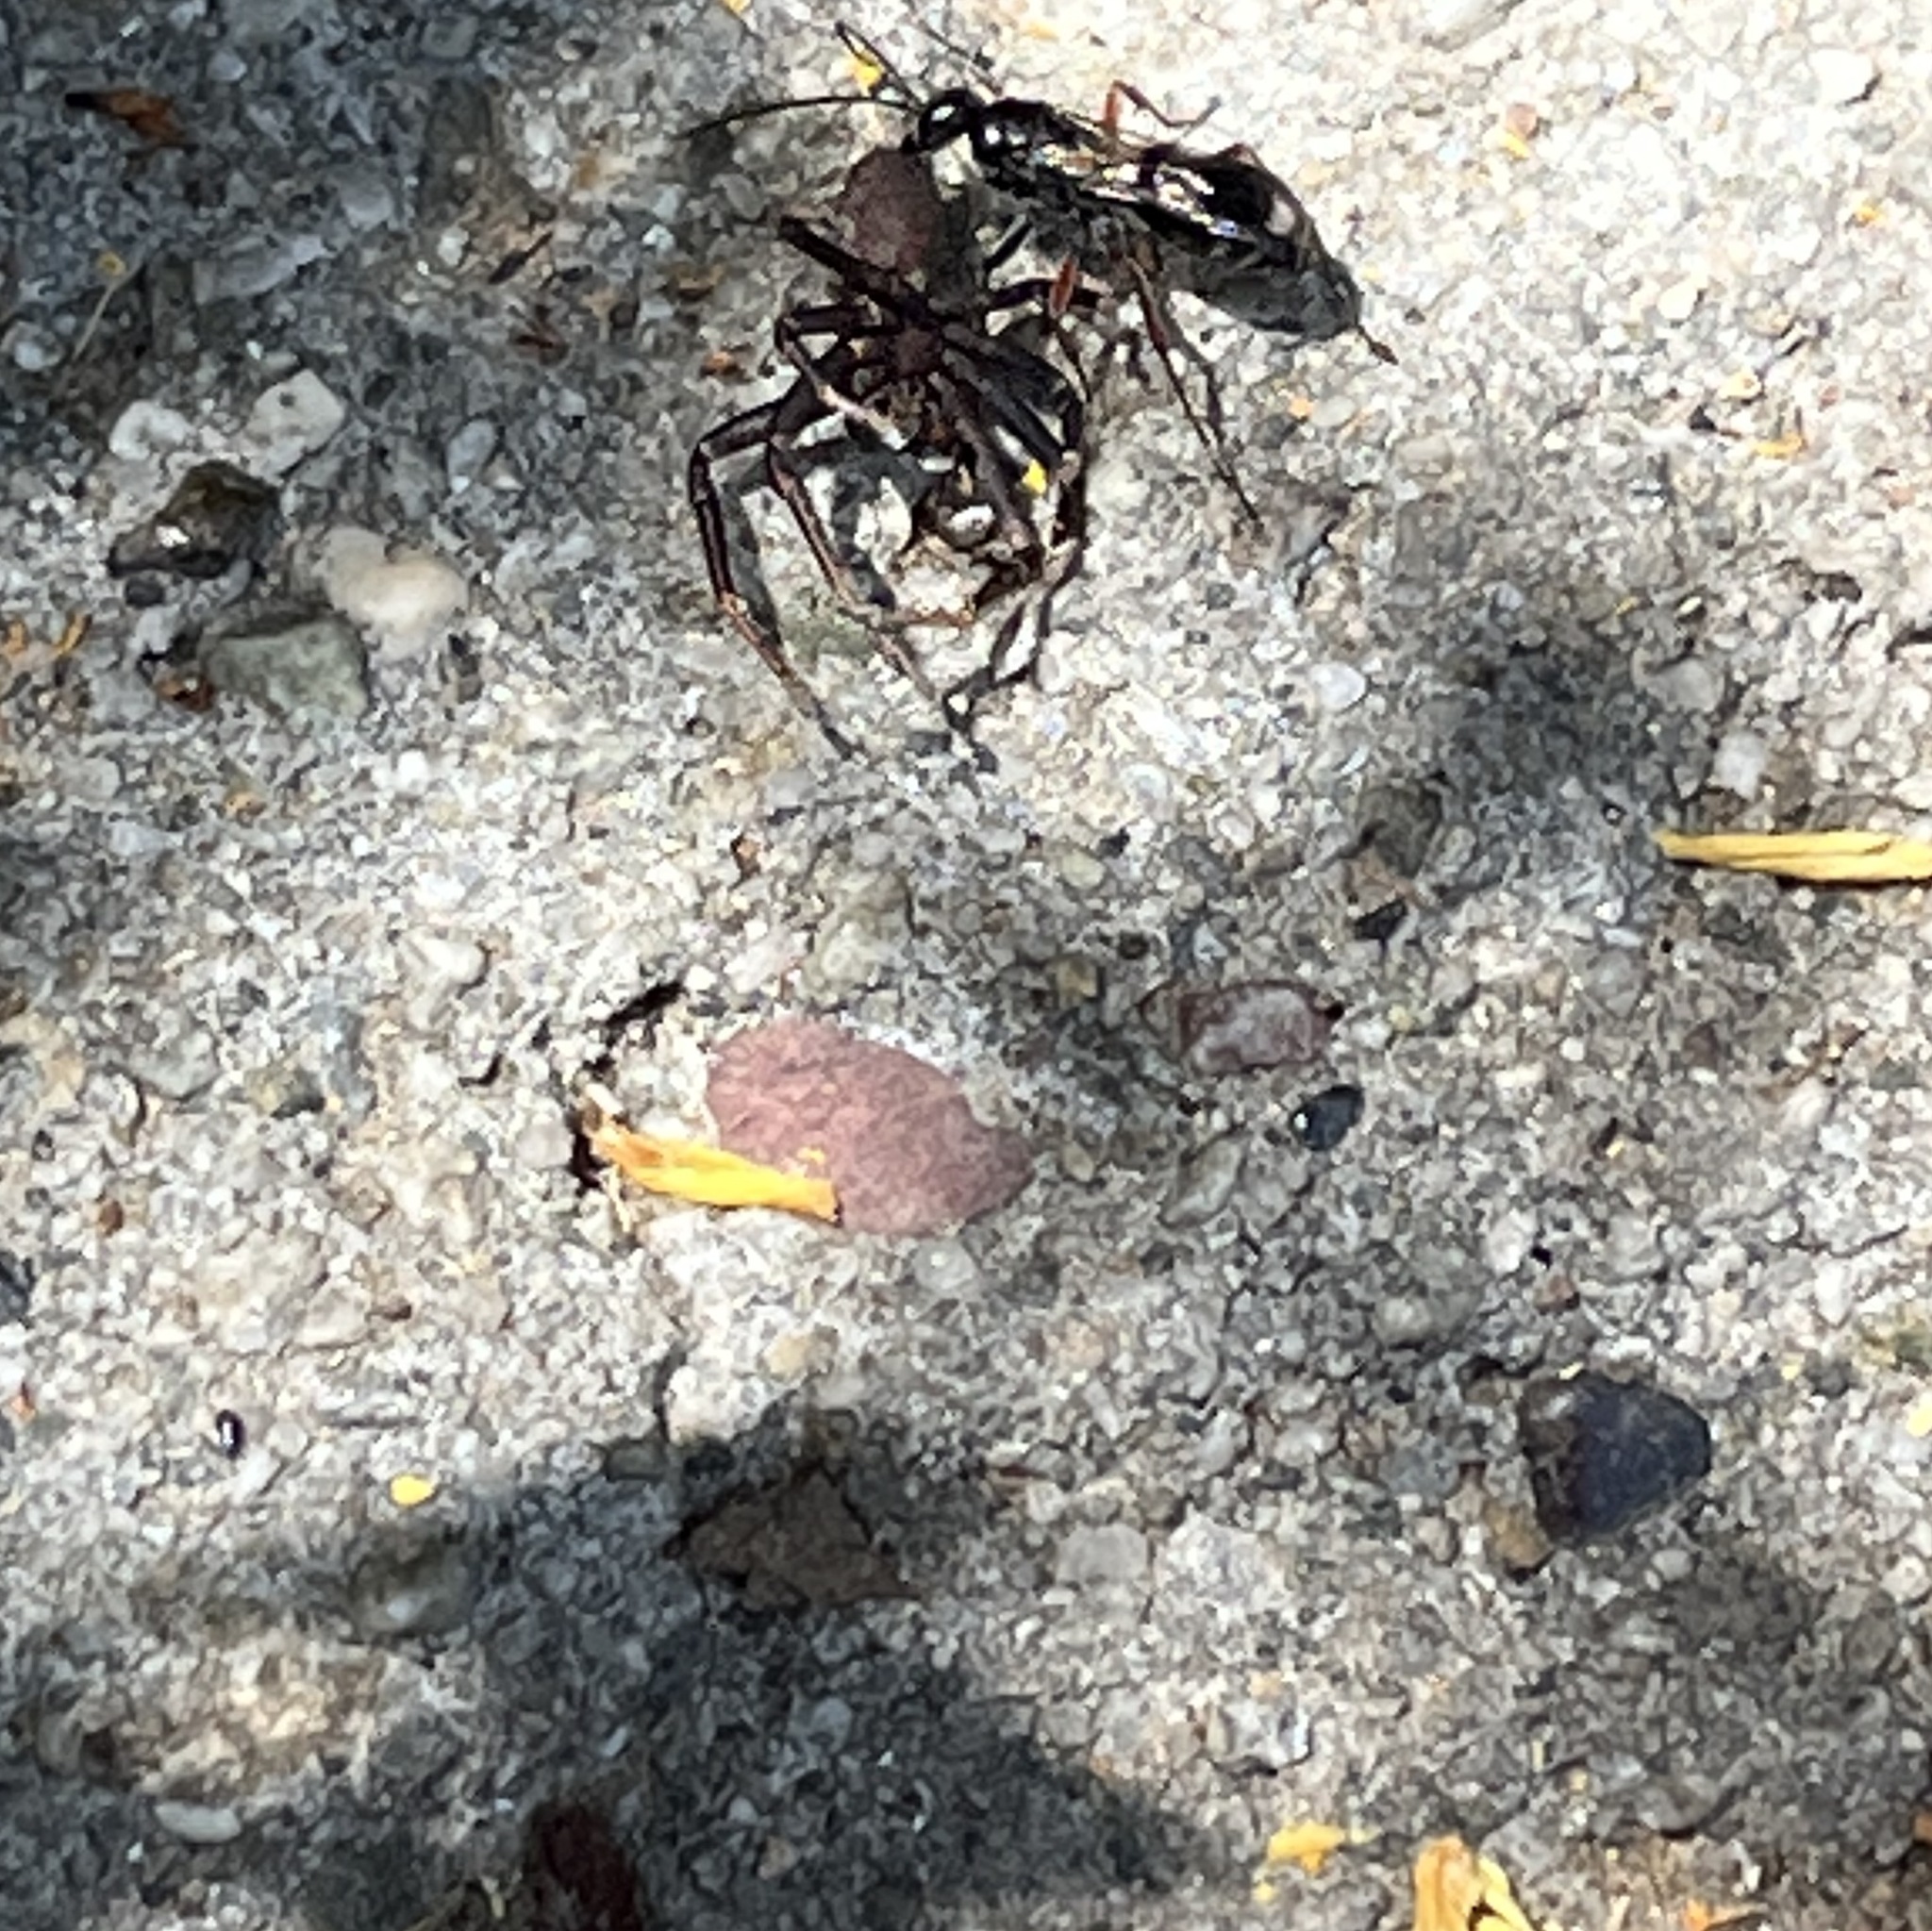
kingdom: Animalia
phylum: Arthropoda
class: Insecta
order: Hymenoptera
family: Pompilidae
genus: Dipogon
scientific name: Dipogon
